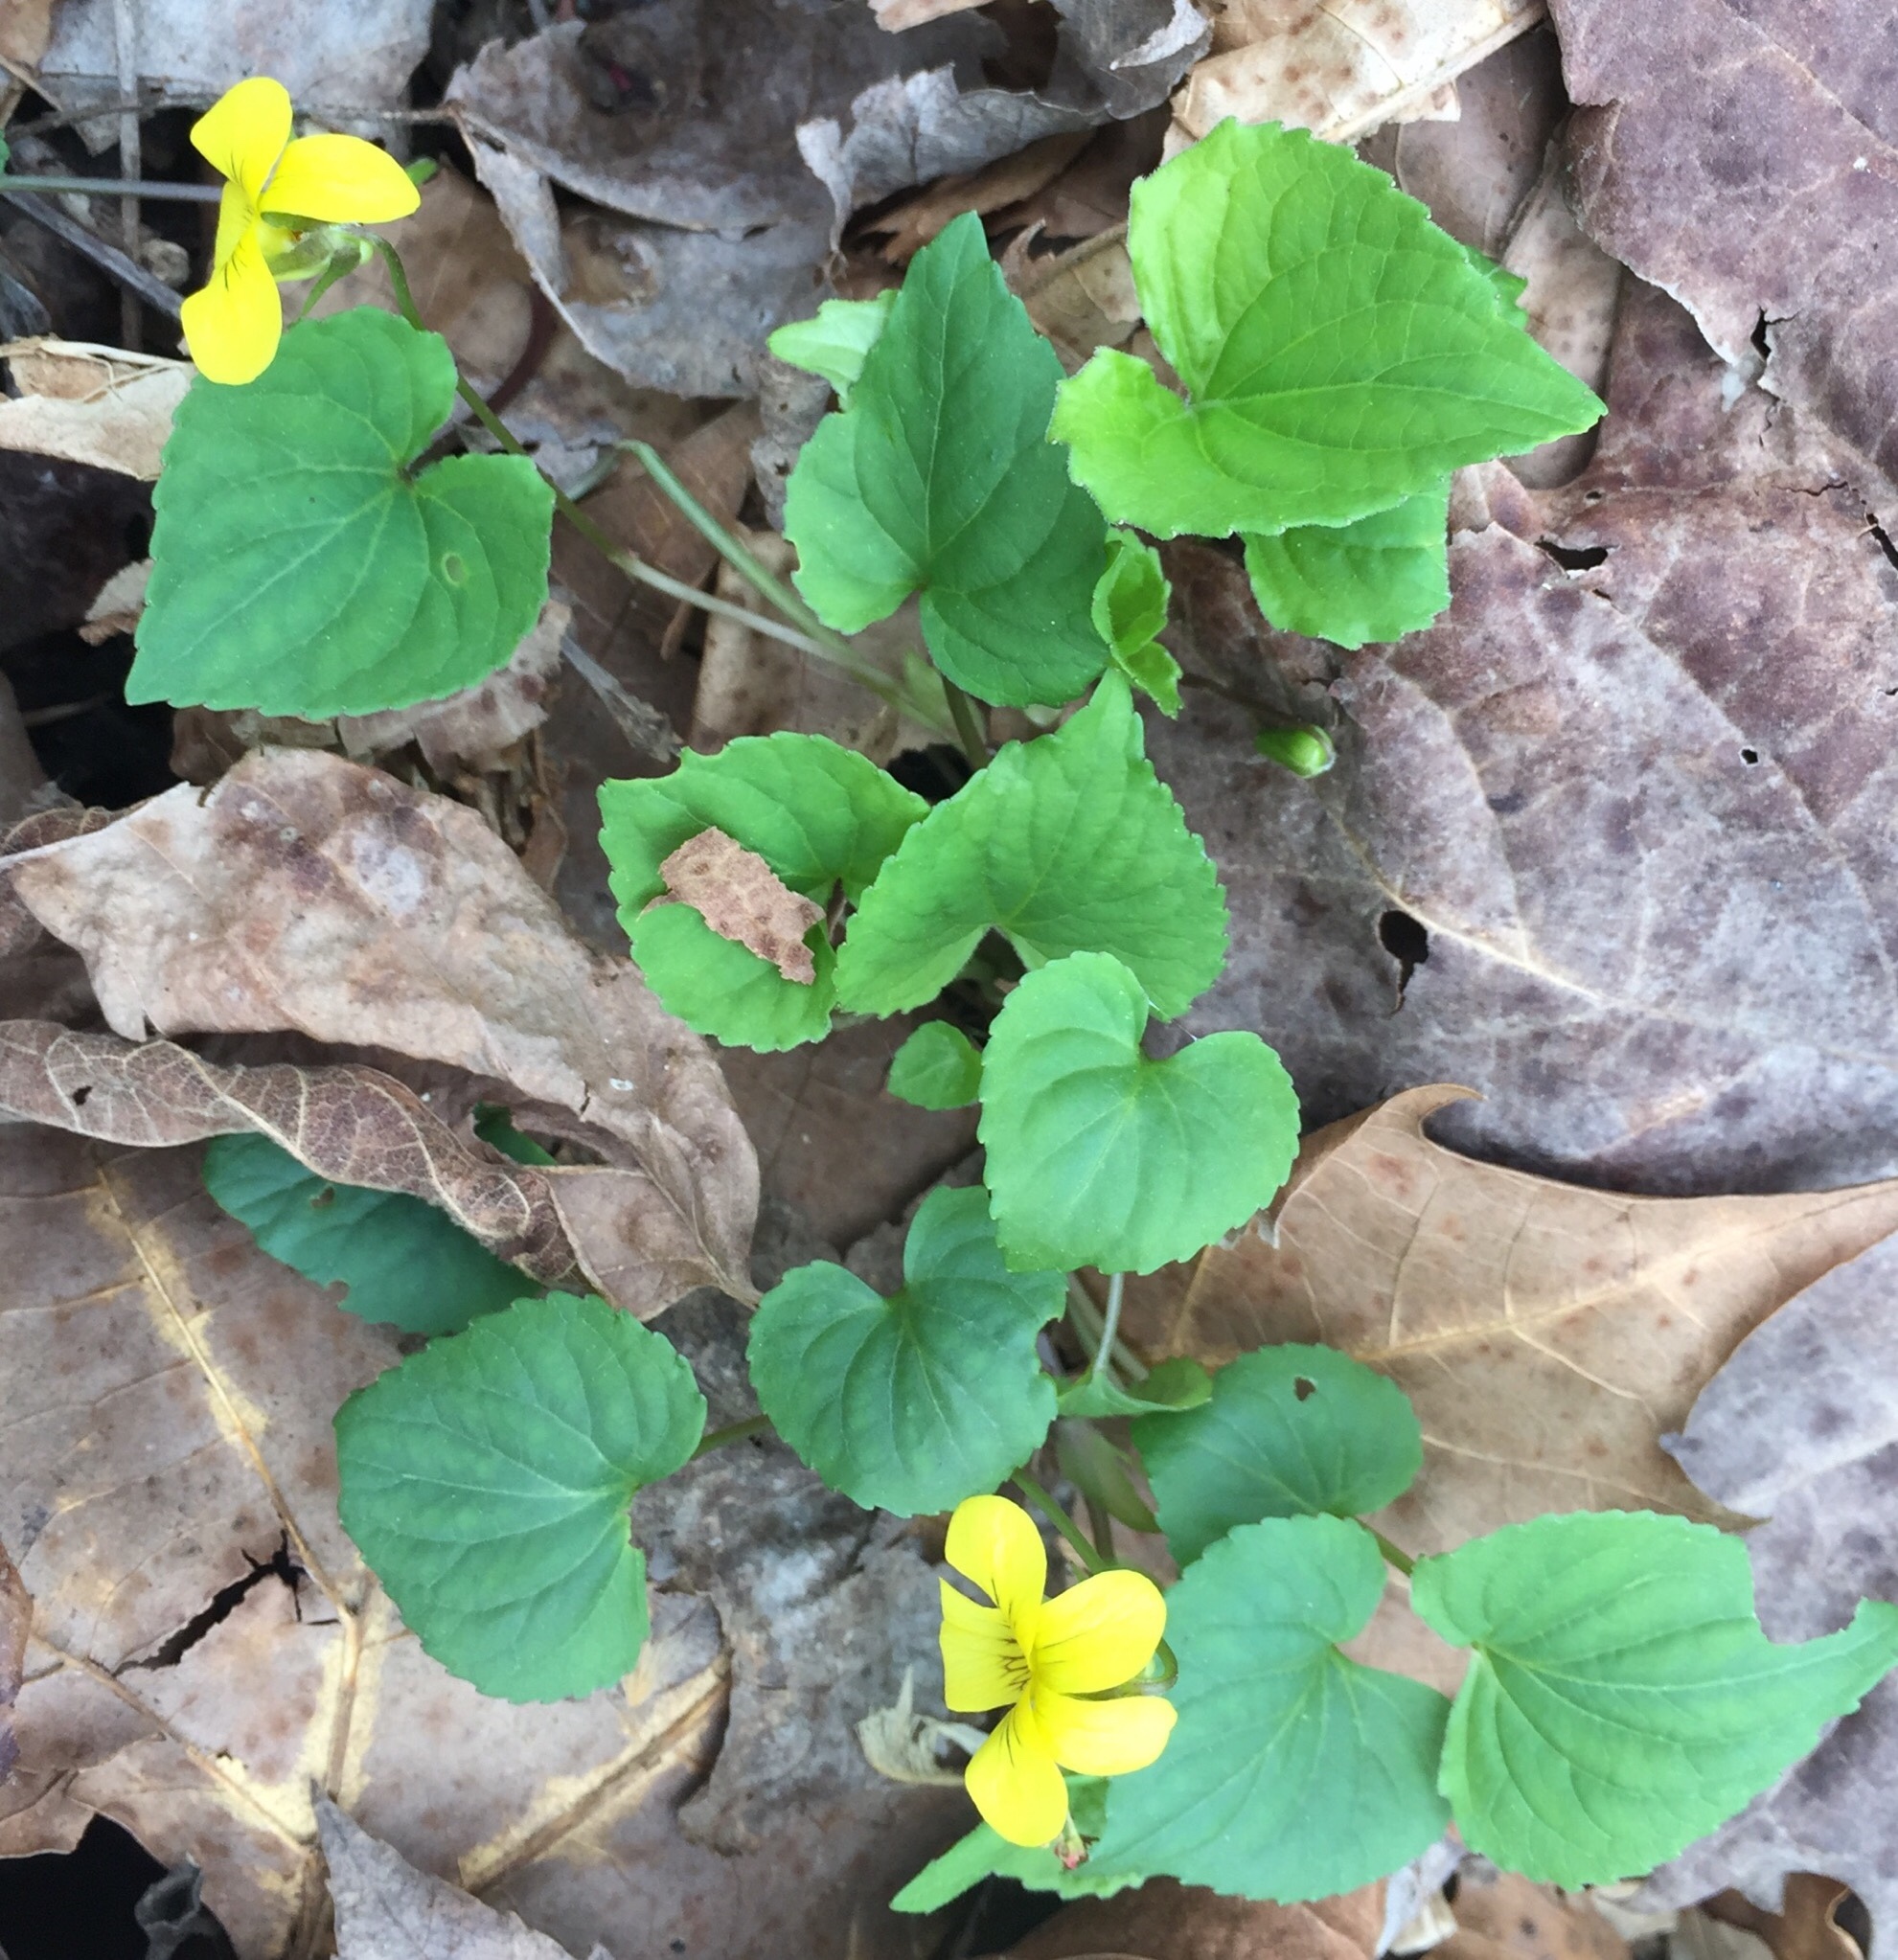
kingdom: Plantae
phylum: Tracheophyta
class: Magnoliopsida
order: Malpighiales
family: Violaceae
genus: Viola
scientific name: Viola eriocarpa
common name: Smooth yellow violet
